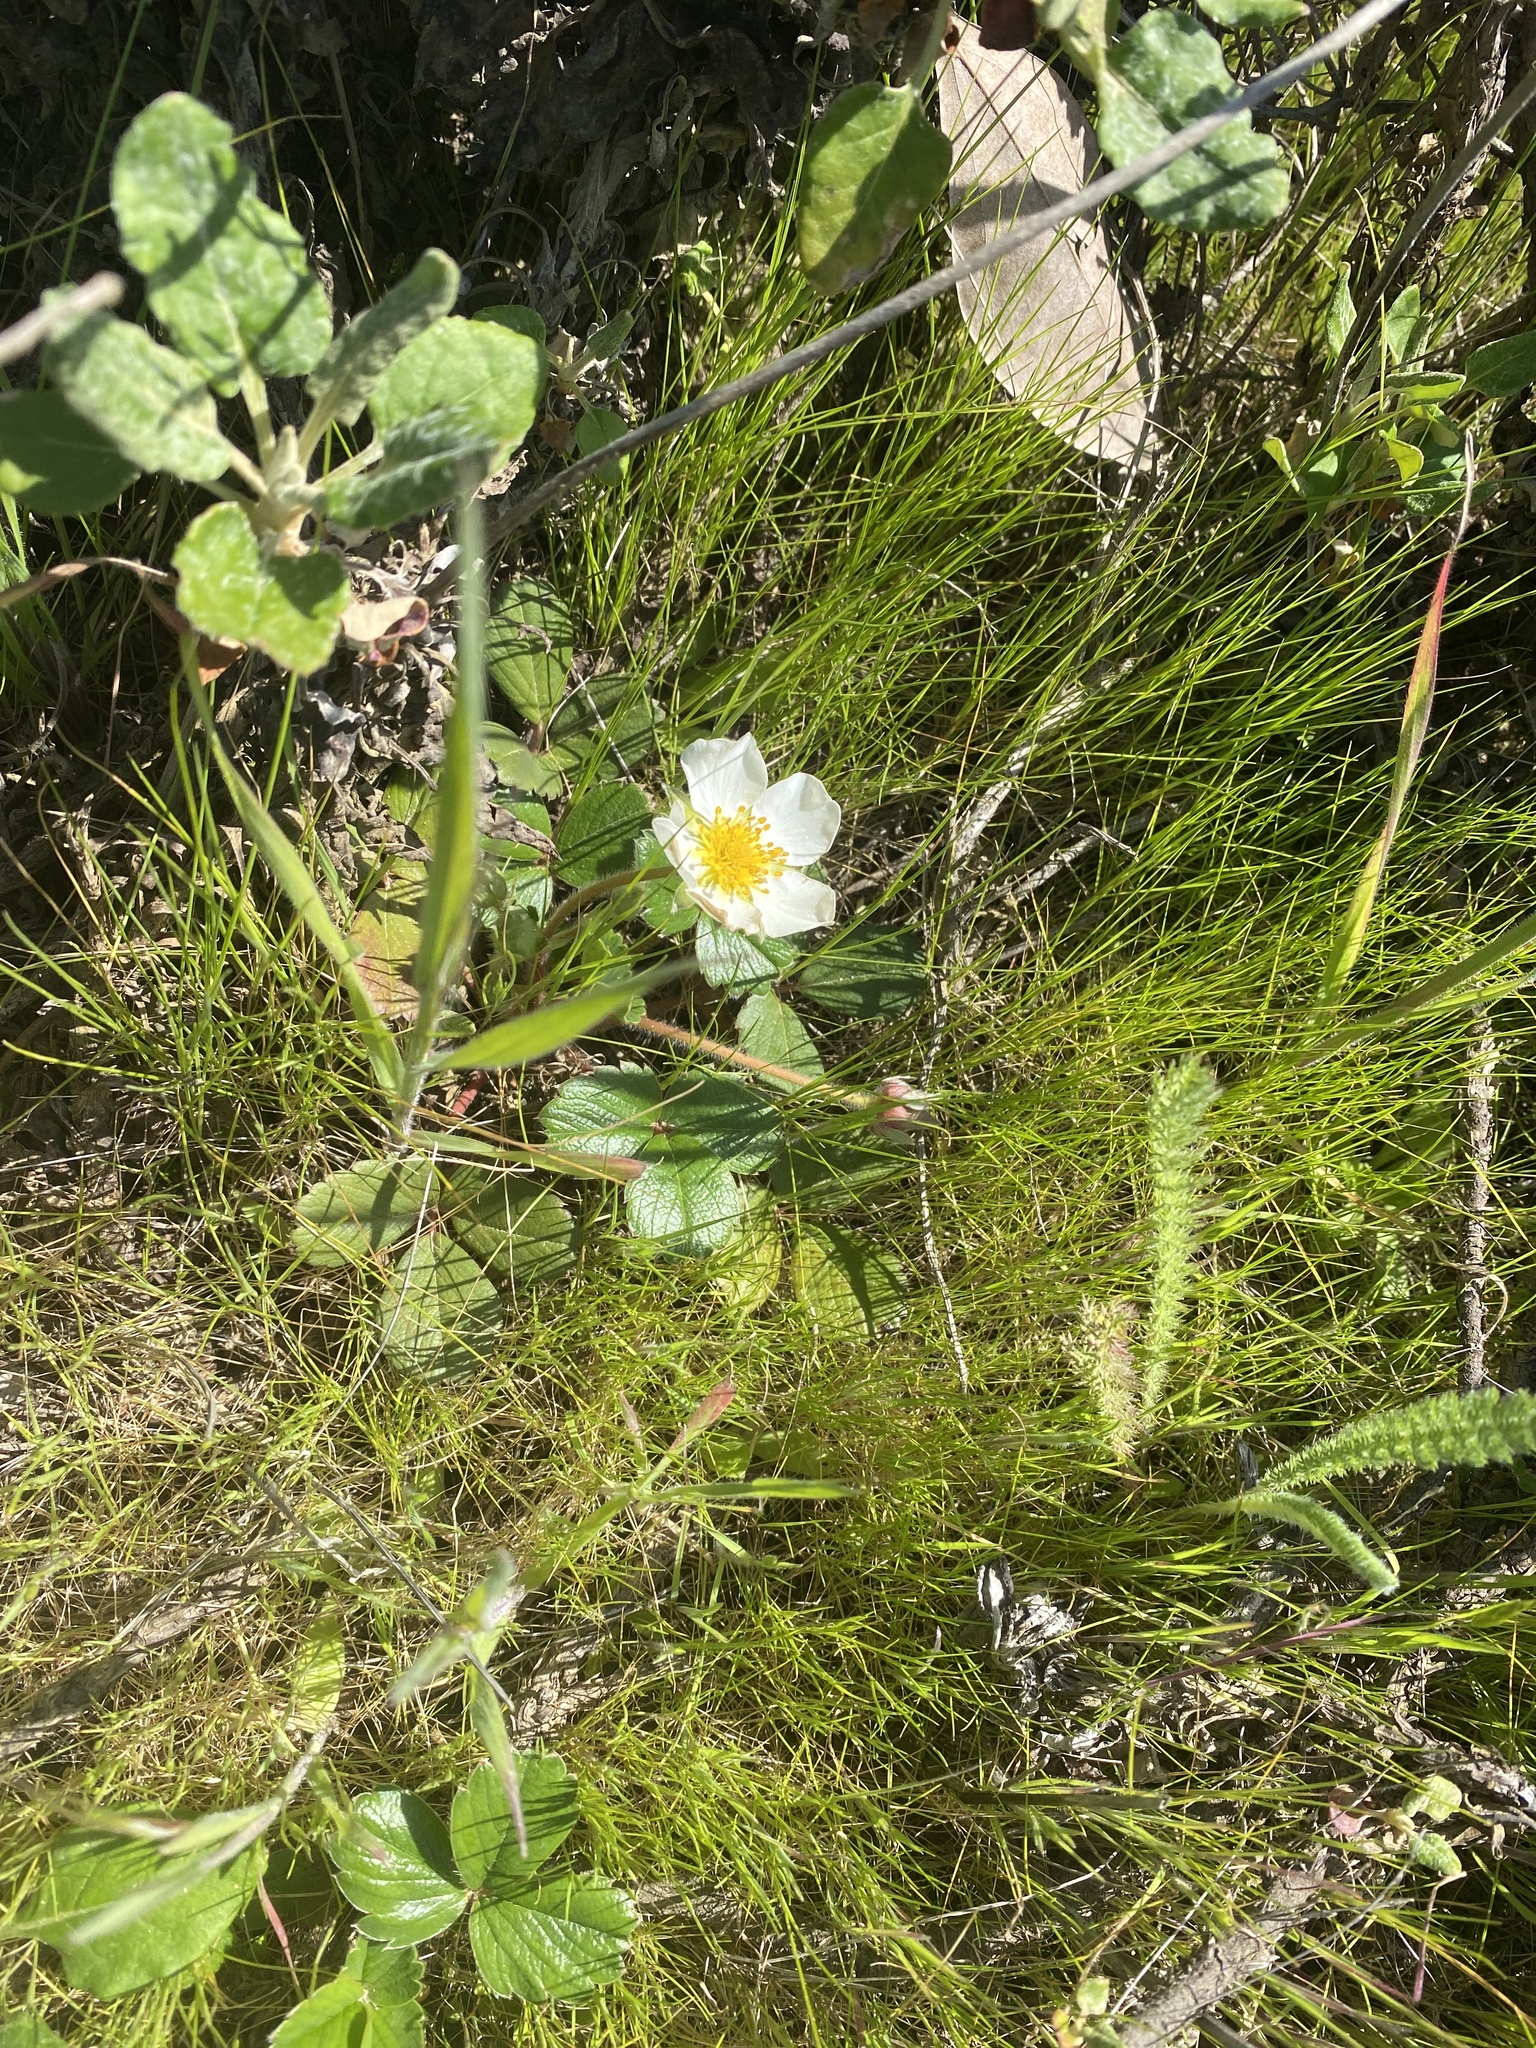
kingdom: Plantae
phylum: Tracheophyta
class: Magnoliopsida
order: Rosales
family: Rosaceae
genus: Fragaria
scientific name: Fragaria chiloensis
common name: Beach strawberry
